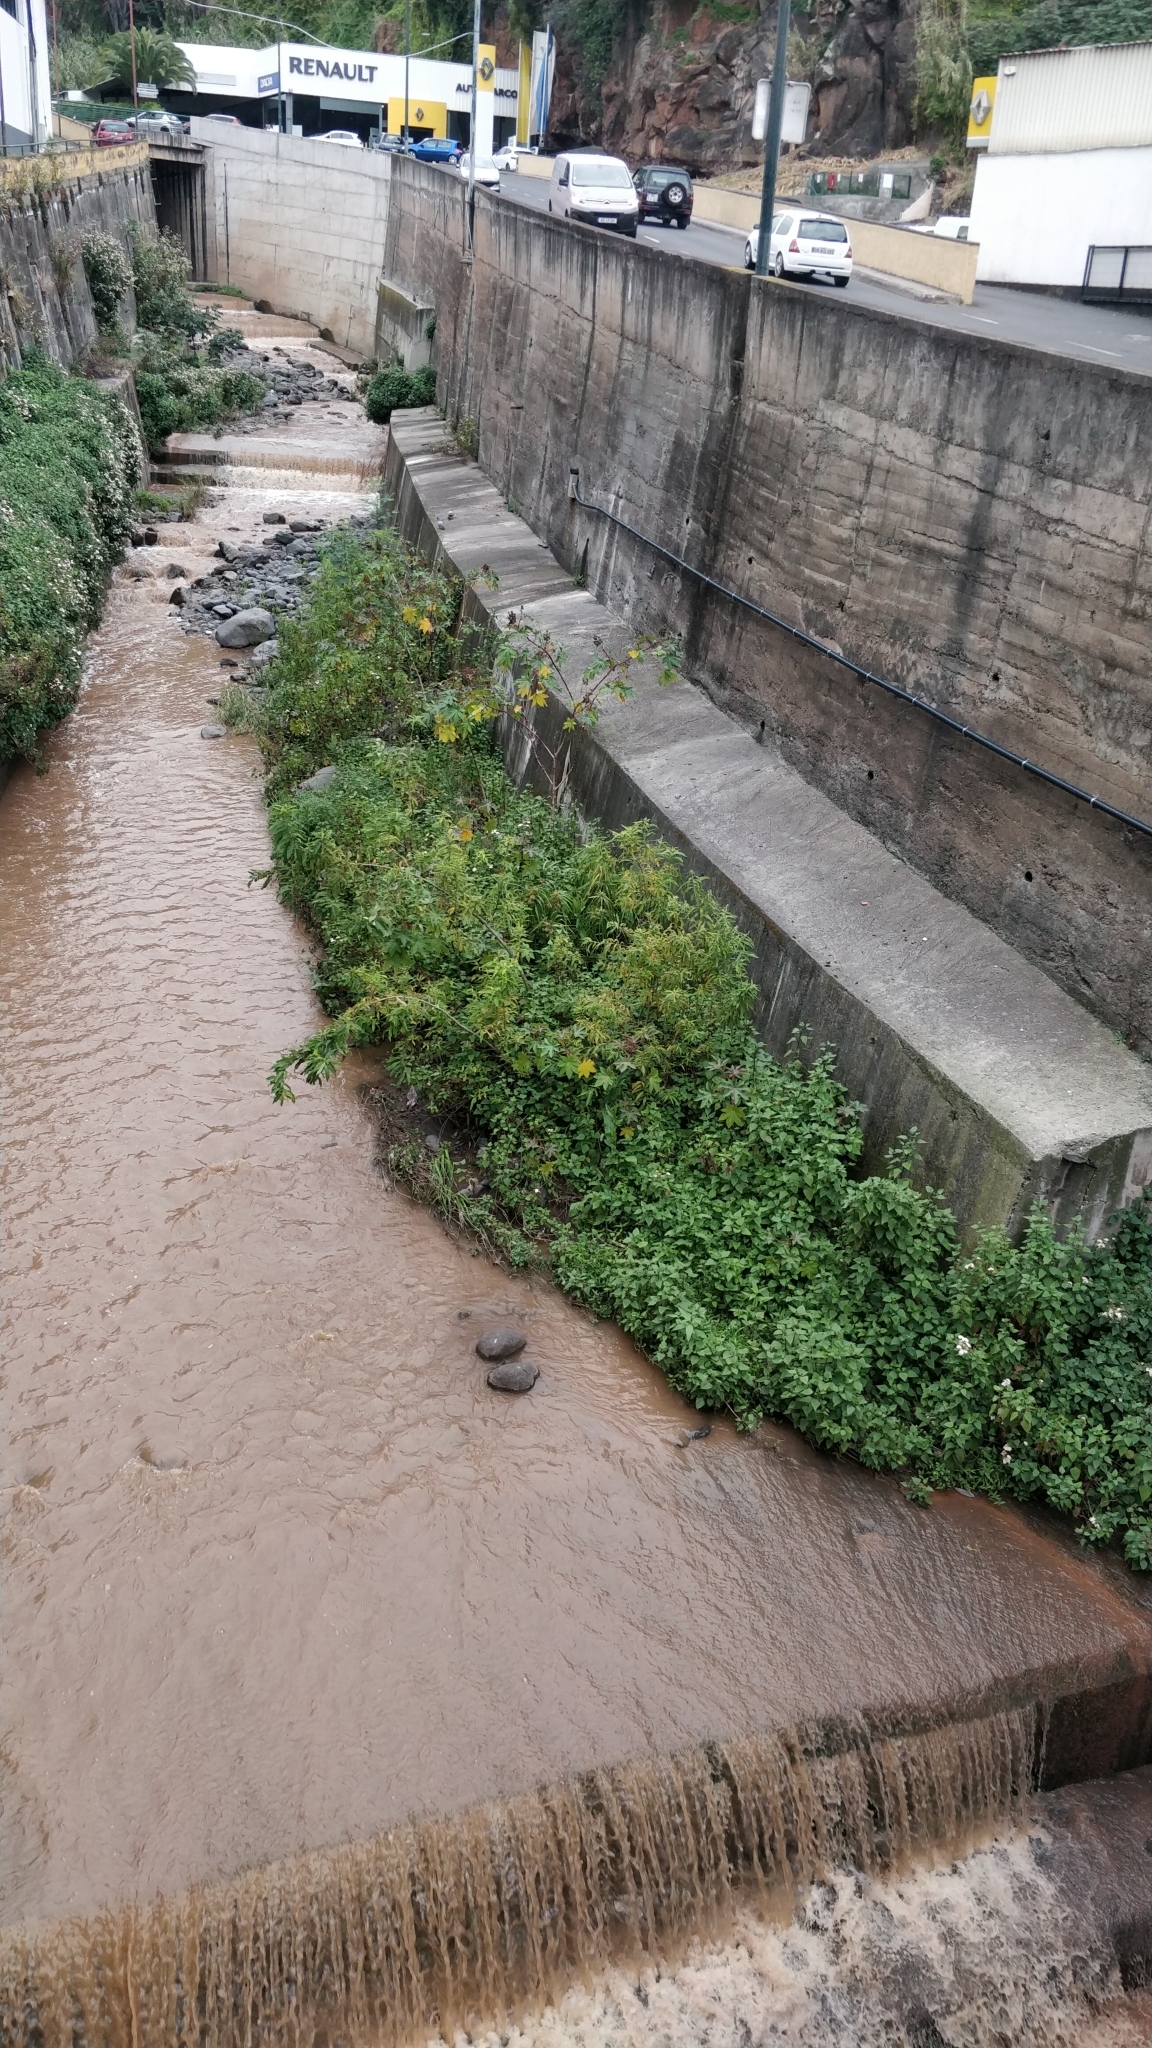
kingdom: Plantae
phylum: Tracheophyta
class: Magnoliopsida
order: Malpighiales
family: Salicaceae
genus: Salix
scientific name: Salix canariensis
